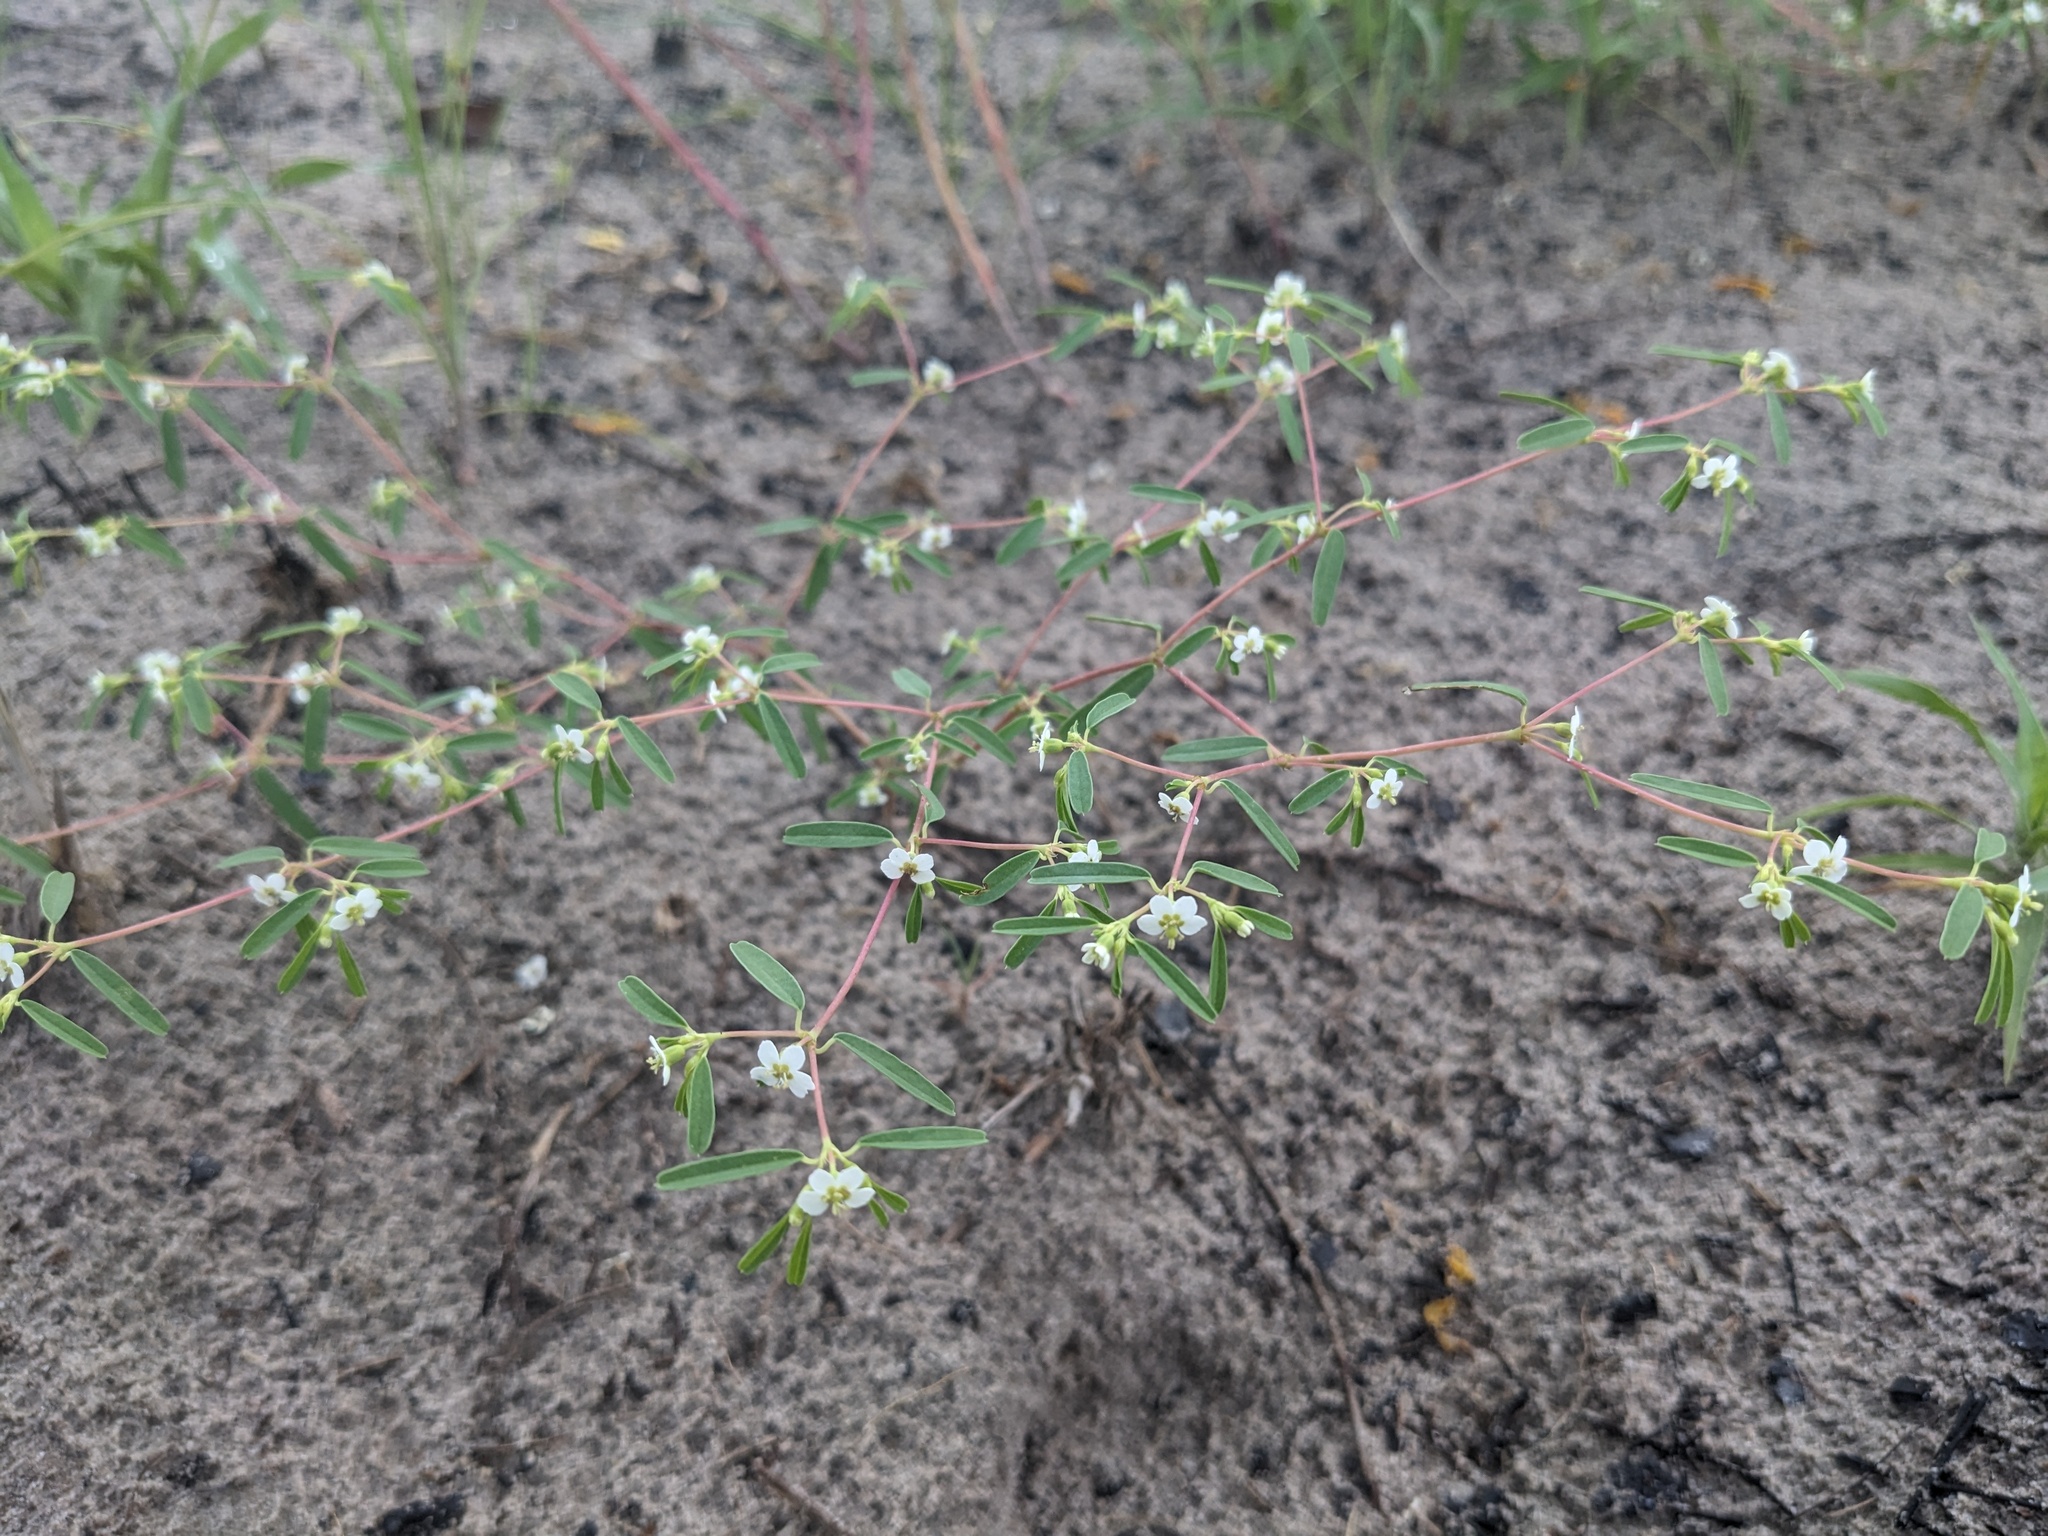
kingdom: Plantae
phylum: Tracheophyta
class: Magnoliopsida
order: Malpighiales
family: Euphorbiaceae
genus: Euphorbia
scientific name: Euphorbia missurica
